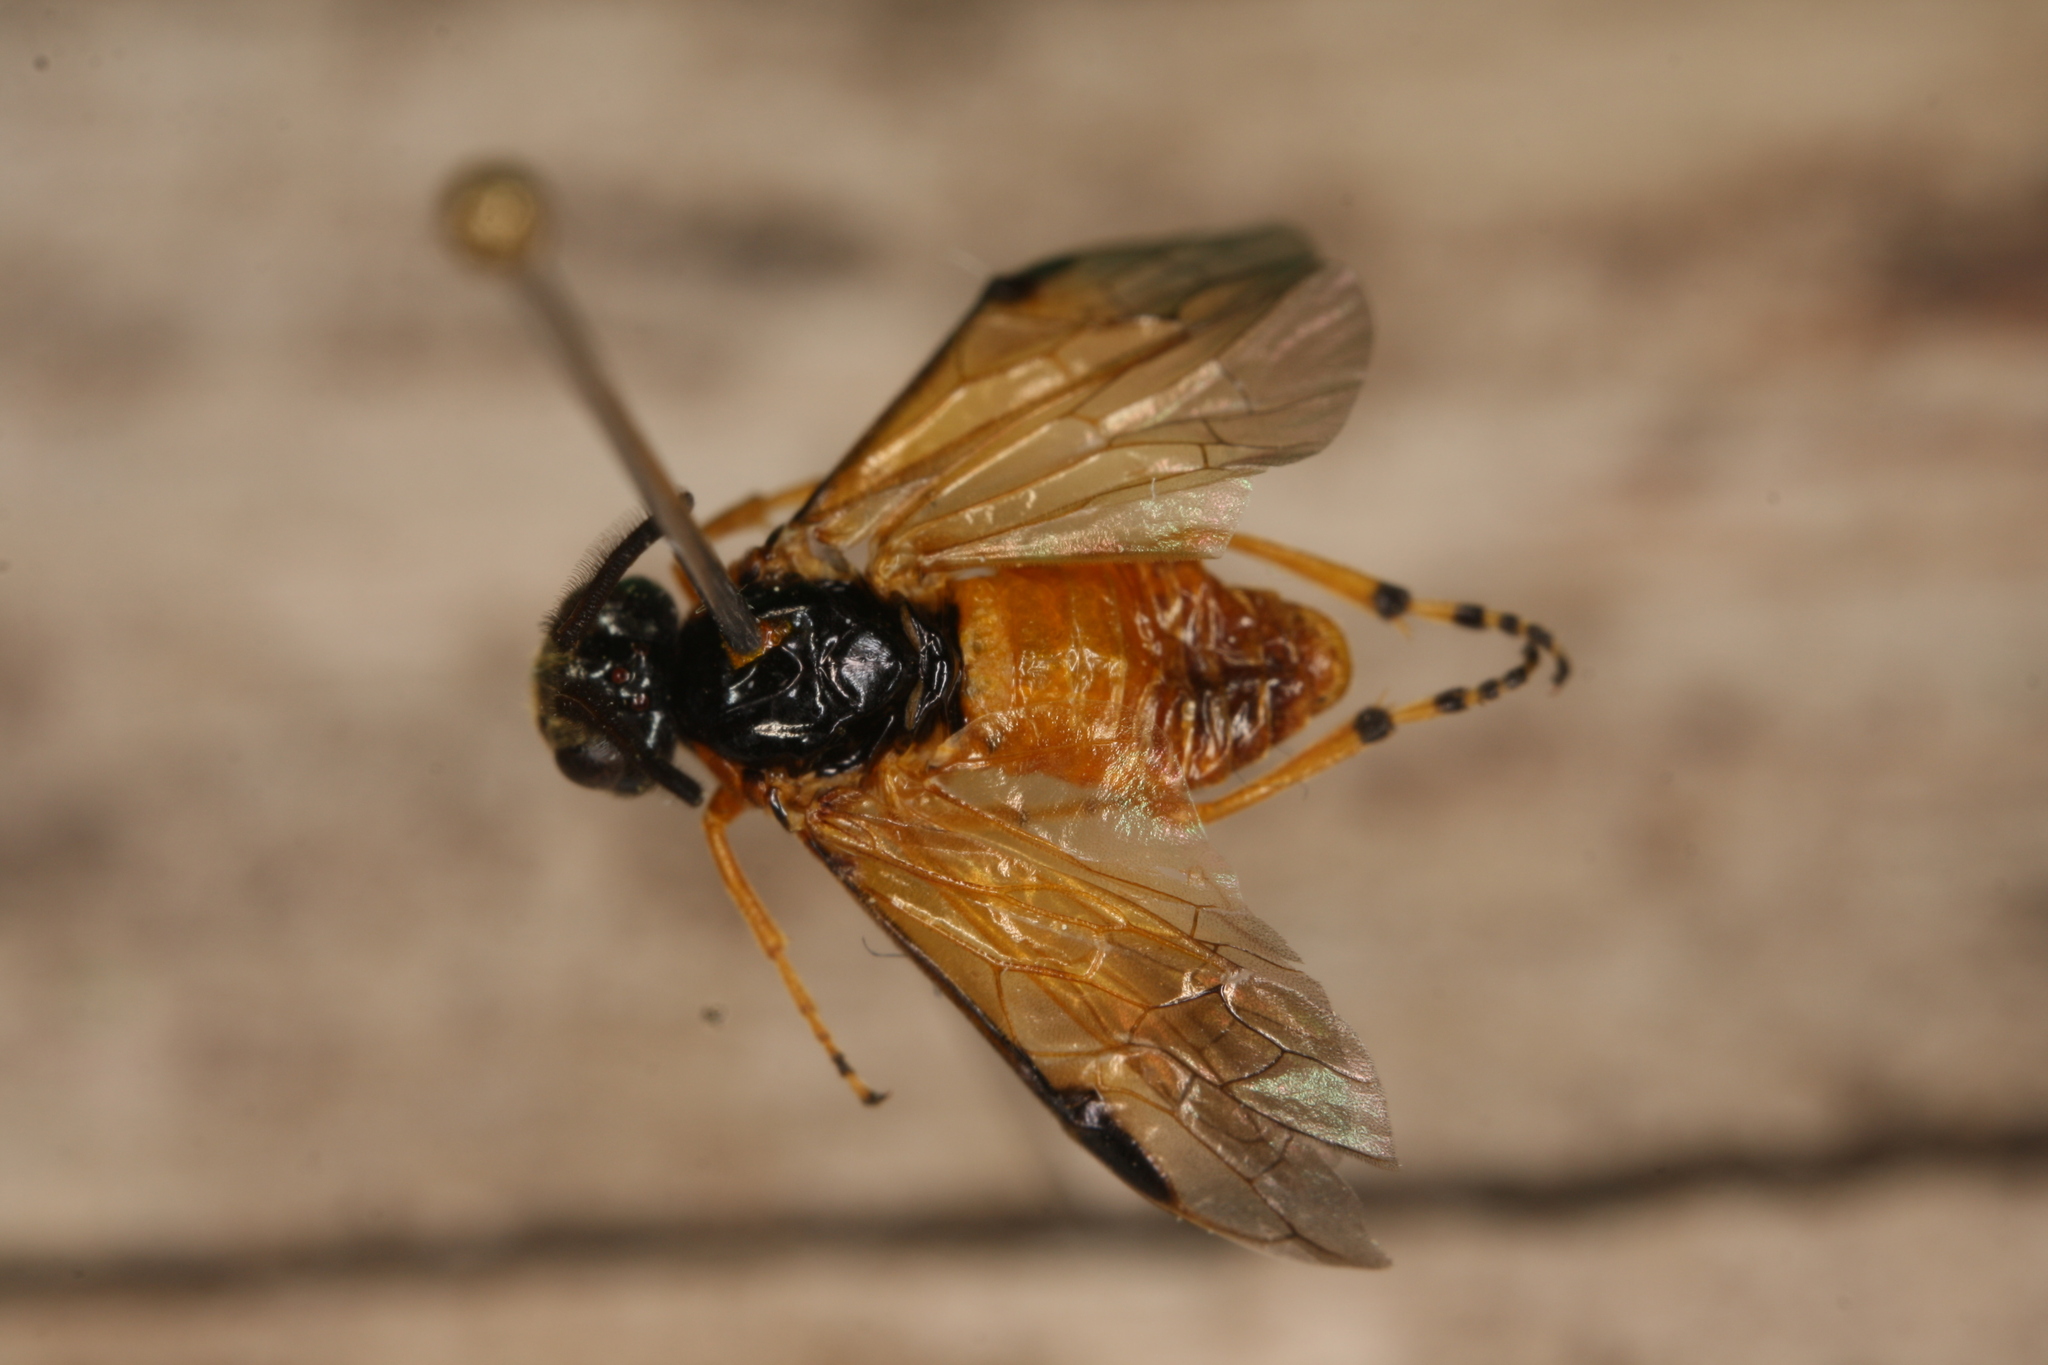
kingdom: Animalia
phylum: Arthropoda
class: Insecta
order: Hymenoptera
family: Argidae
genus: Arge
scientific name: Arge ochropus
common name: Argid sawfly
